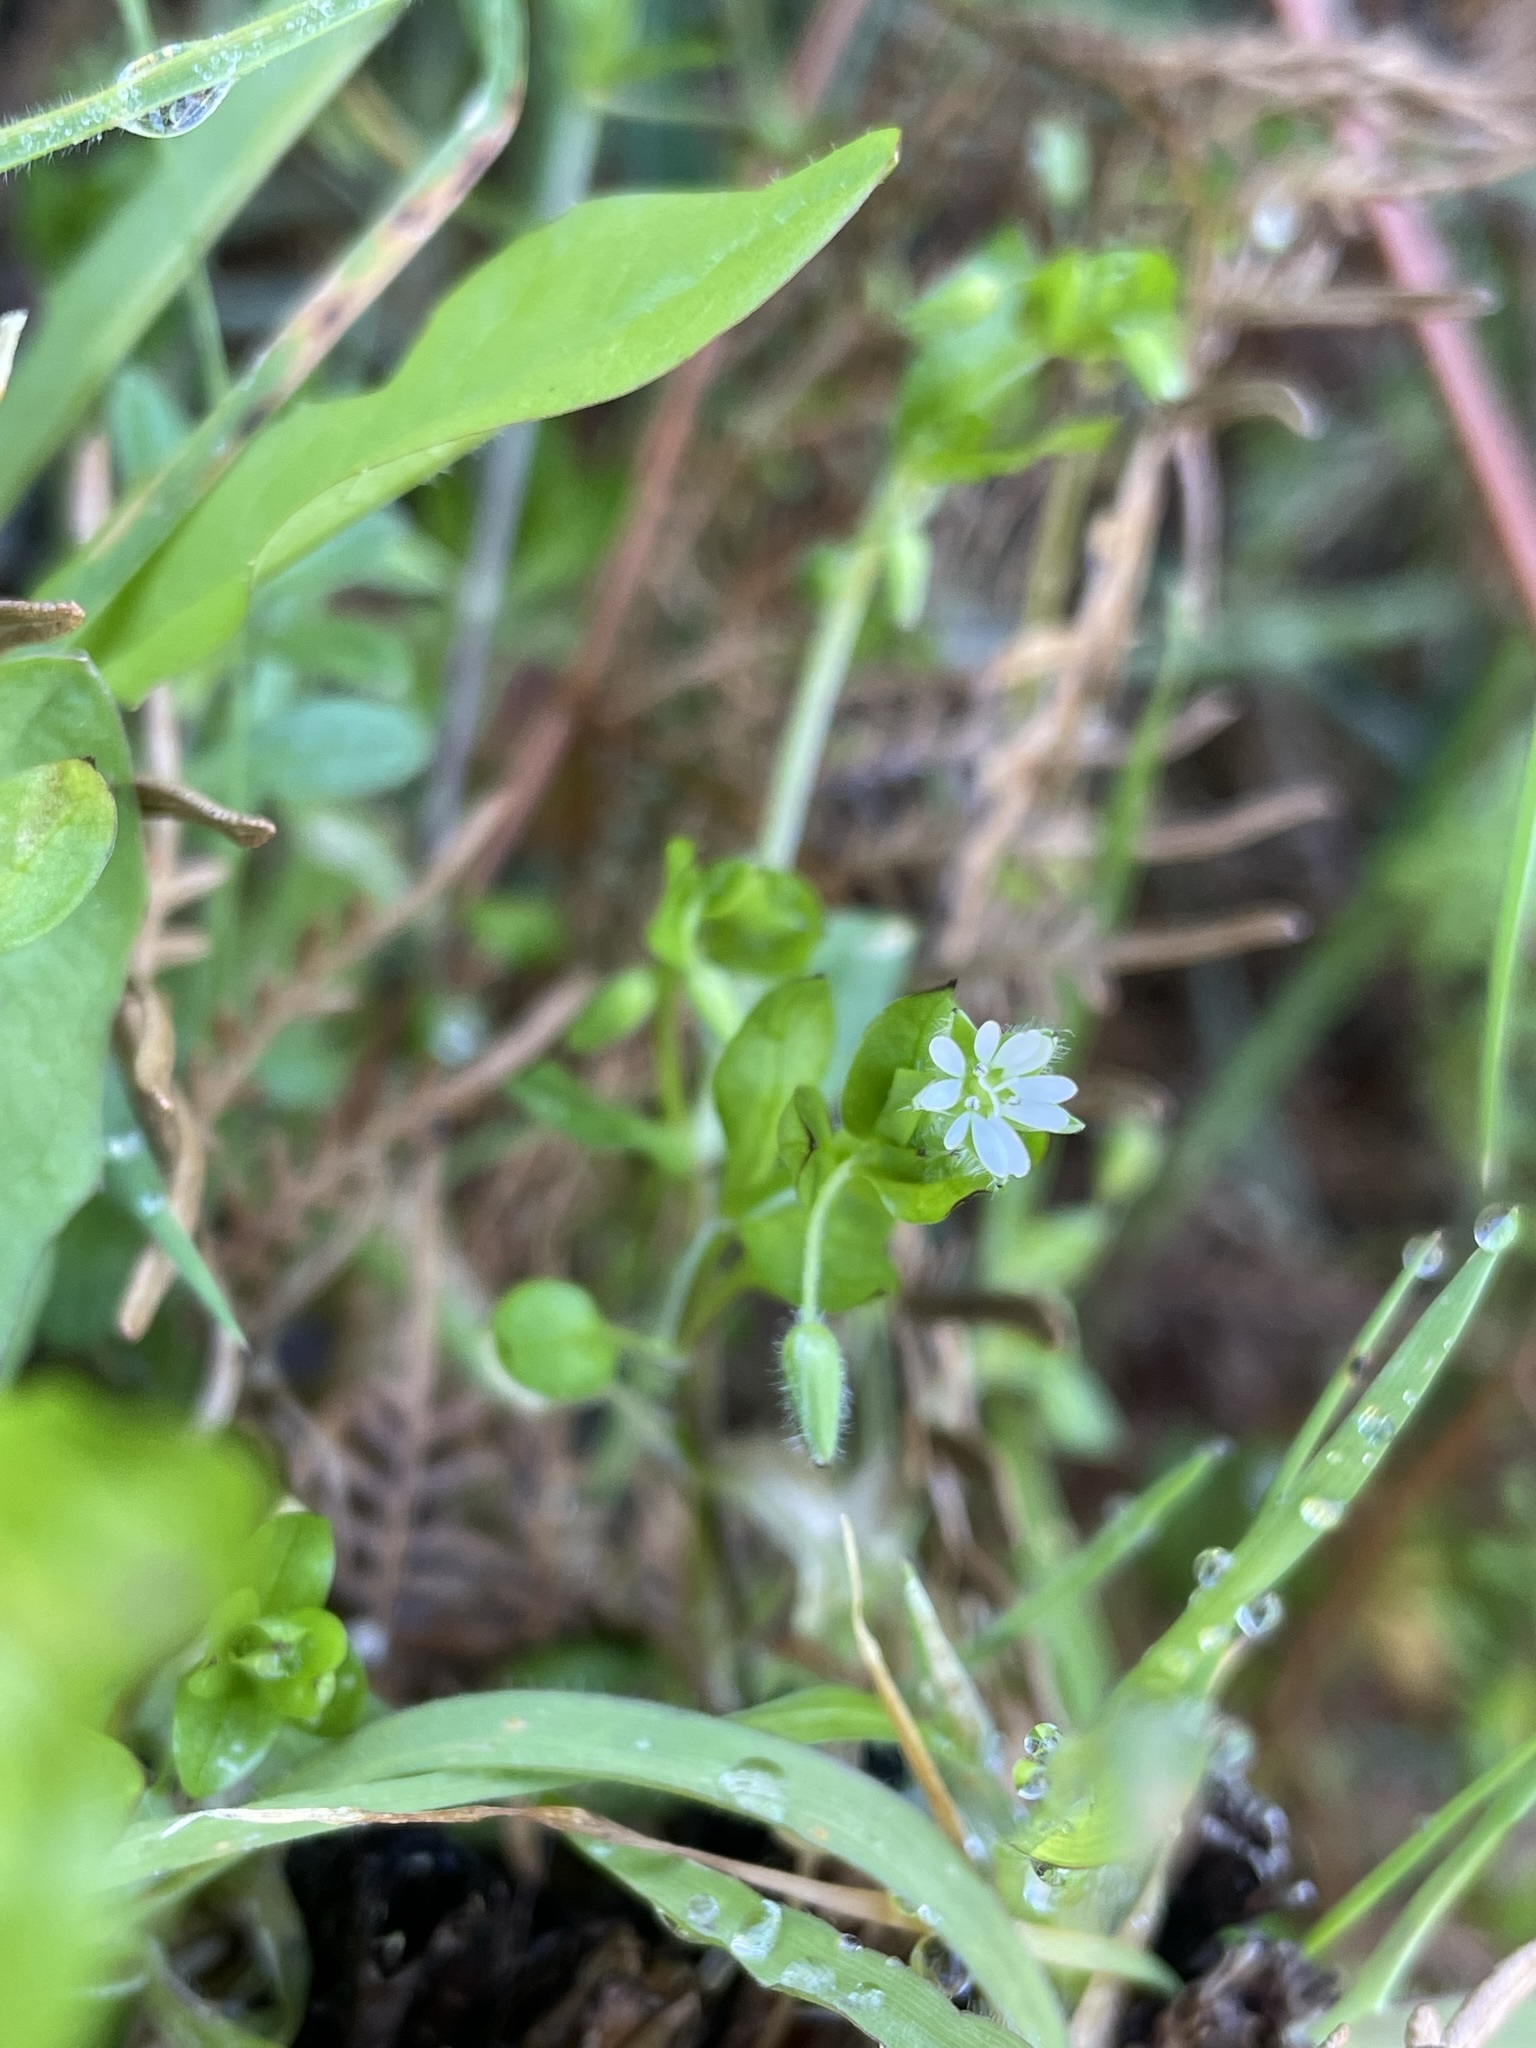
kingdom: Plantae
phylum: Tracheophyta
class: Magnoliopsida
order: Caryophyllales
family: Caryophyllaceae
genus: Stellaria
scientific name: Stellaria media
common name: Common chickweed
